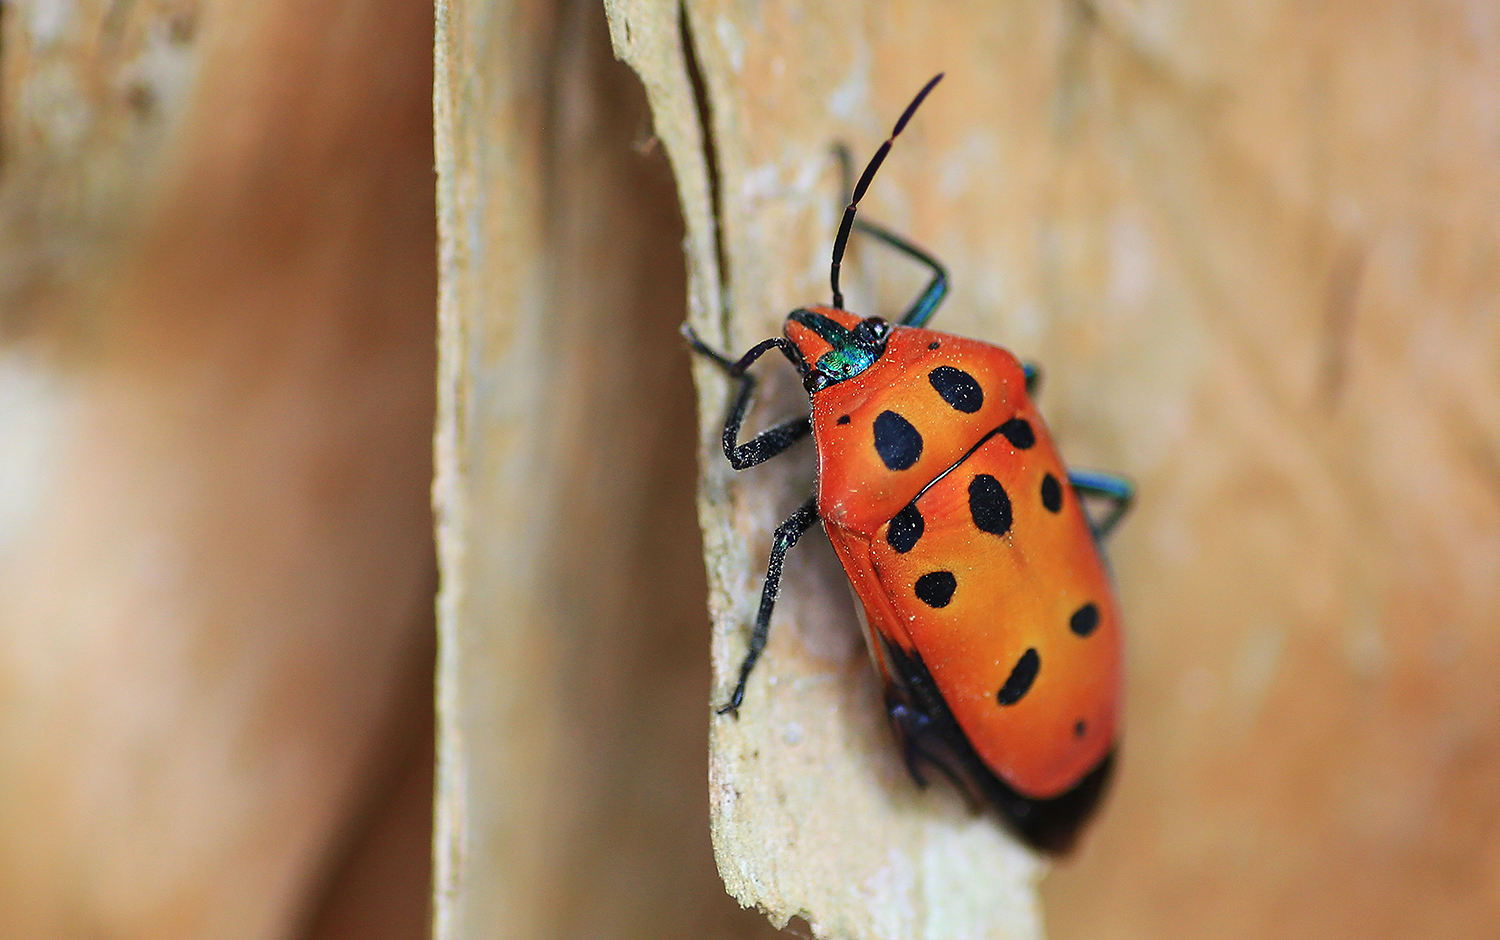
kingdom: Animalia
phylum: Arthropoda
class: Insecta
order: Hemiptera
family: Scutelleridae
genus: Cantao
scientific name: Cantao
